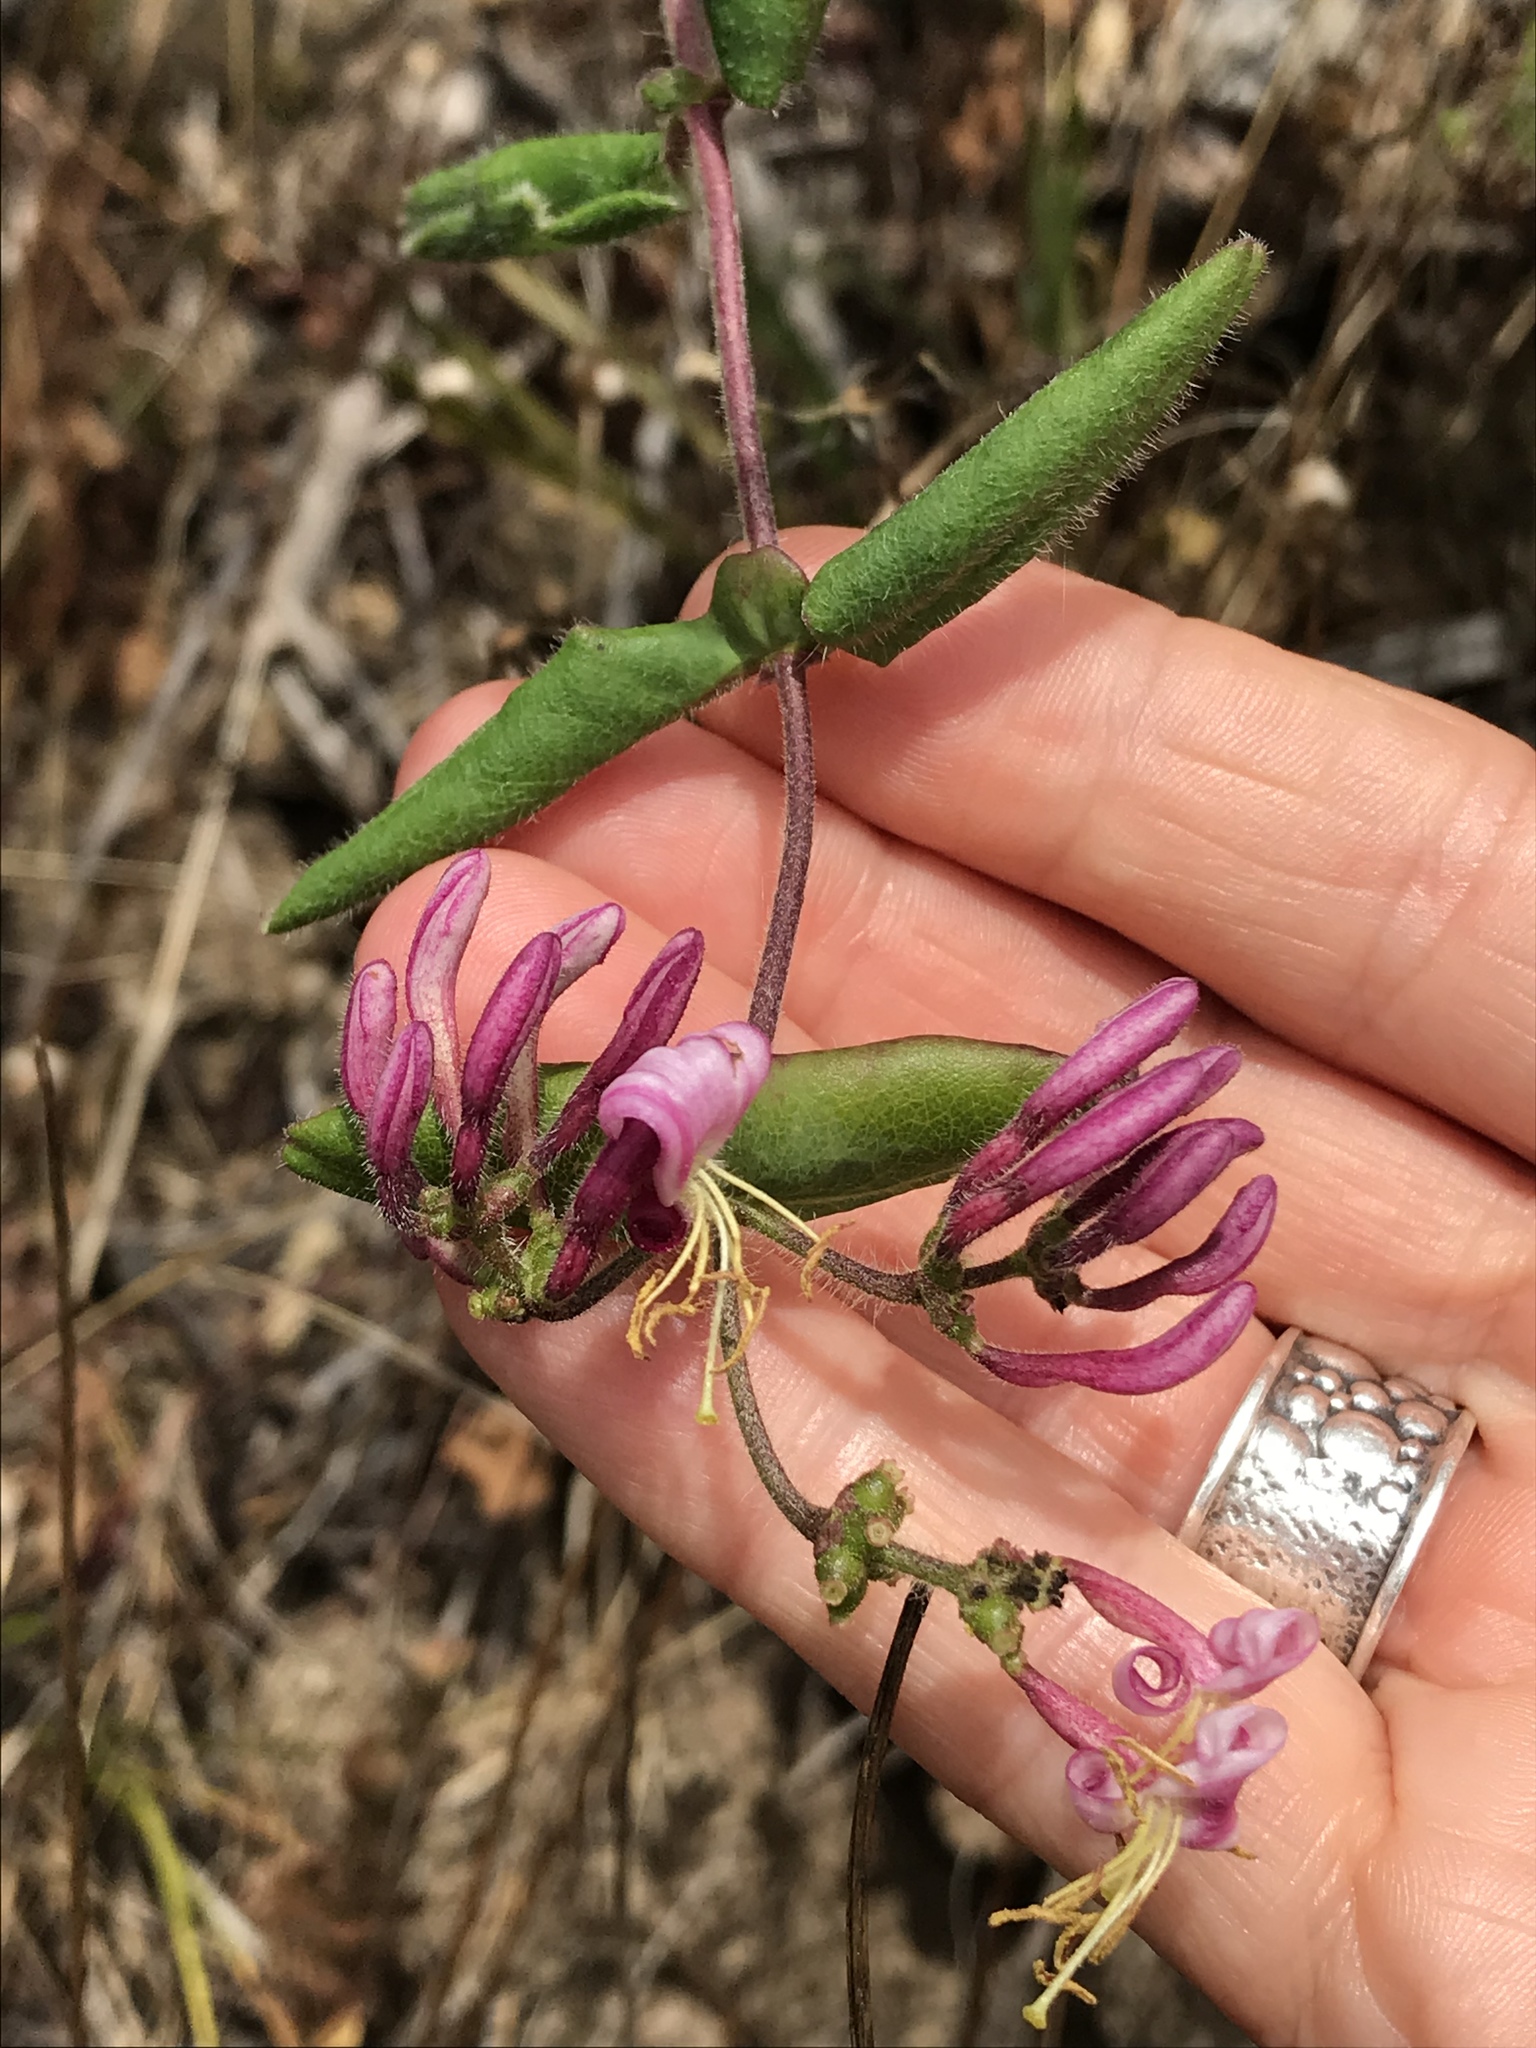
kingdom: Plantae
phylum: Tracheophyta
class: Magnoliopsida
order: Dipsacales
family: Caprifoliaceae
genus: Lonicera
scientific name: Lonicera hispidula
